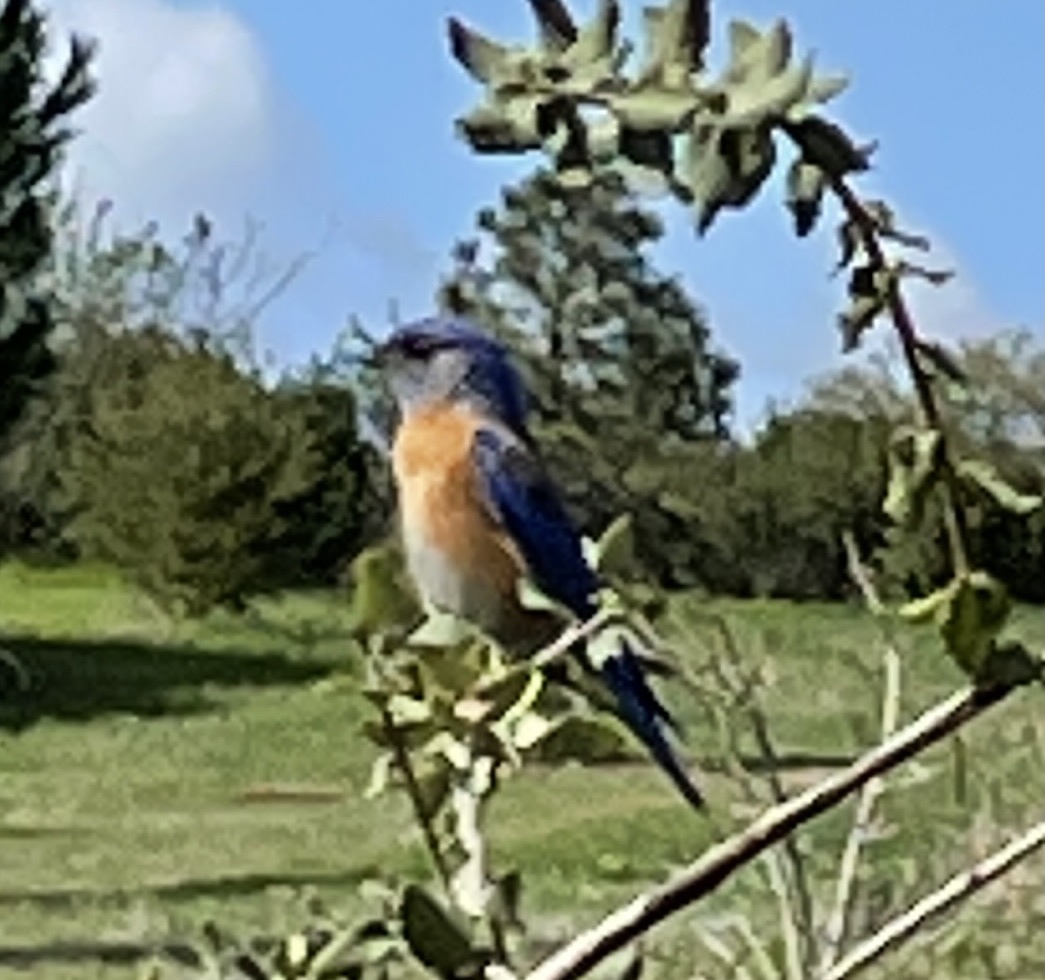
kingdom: Animalia
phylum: Chordata
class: Aves
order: Passeriformes
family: Turdidae
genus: Sialia
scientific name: Sialia mexicana
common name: Western bluebird
